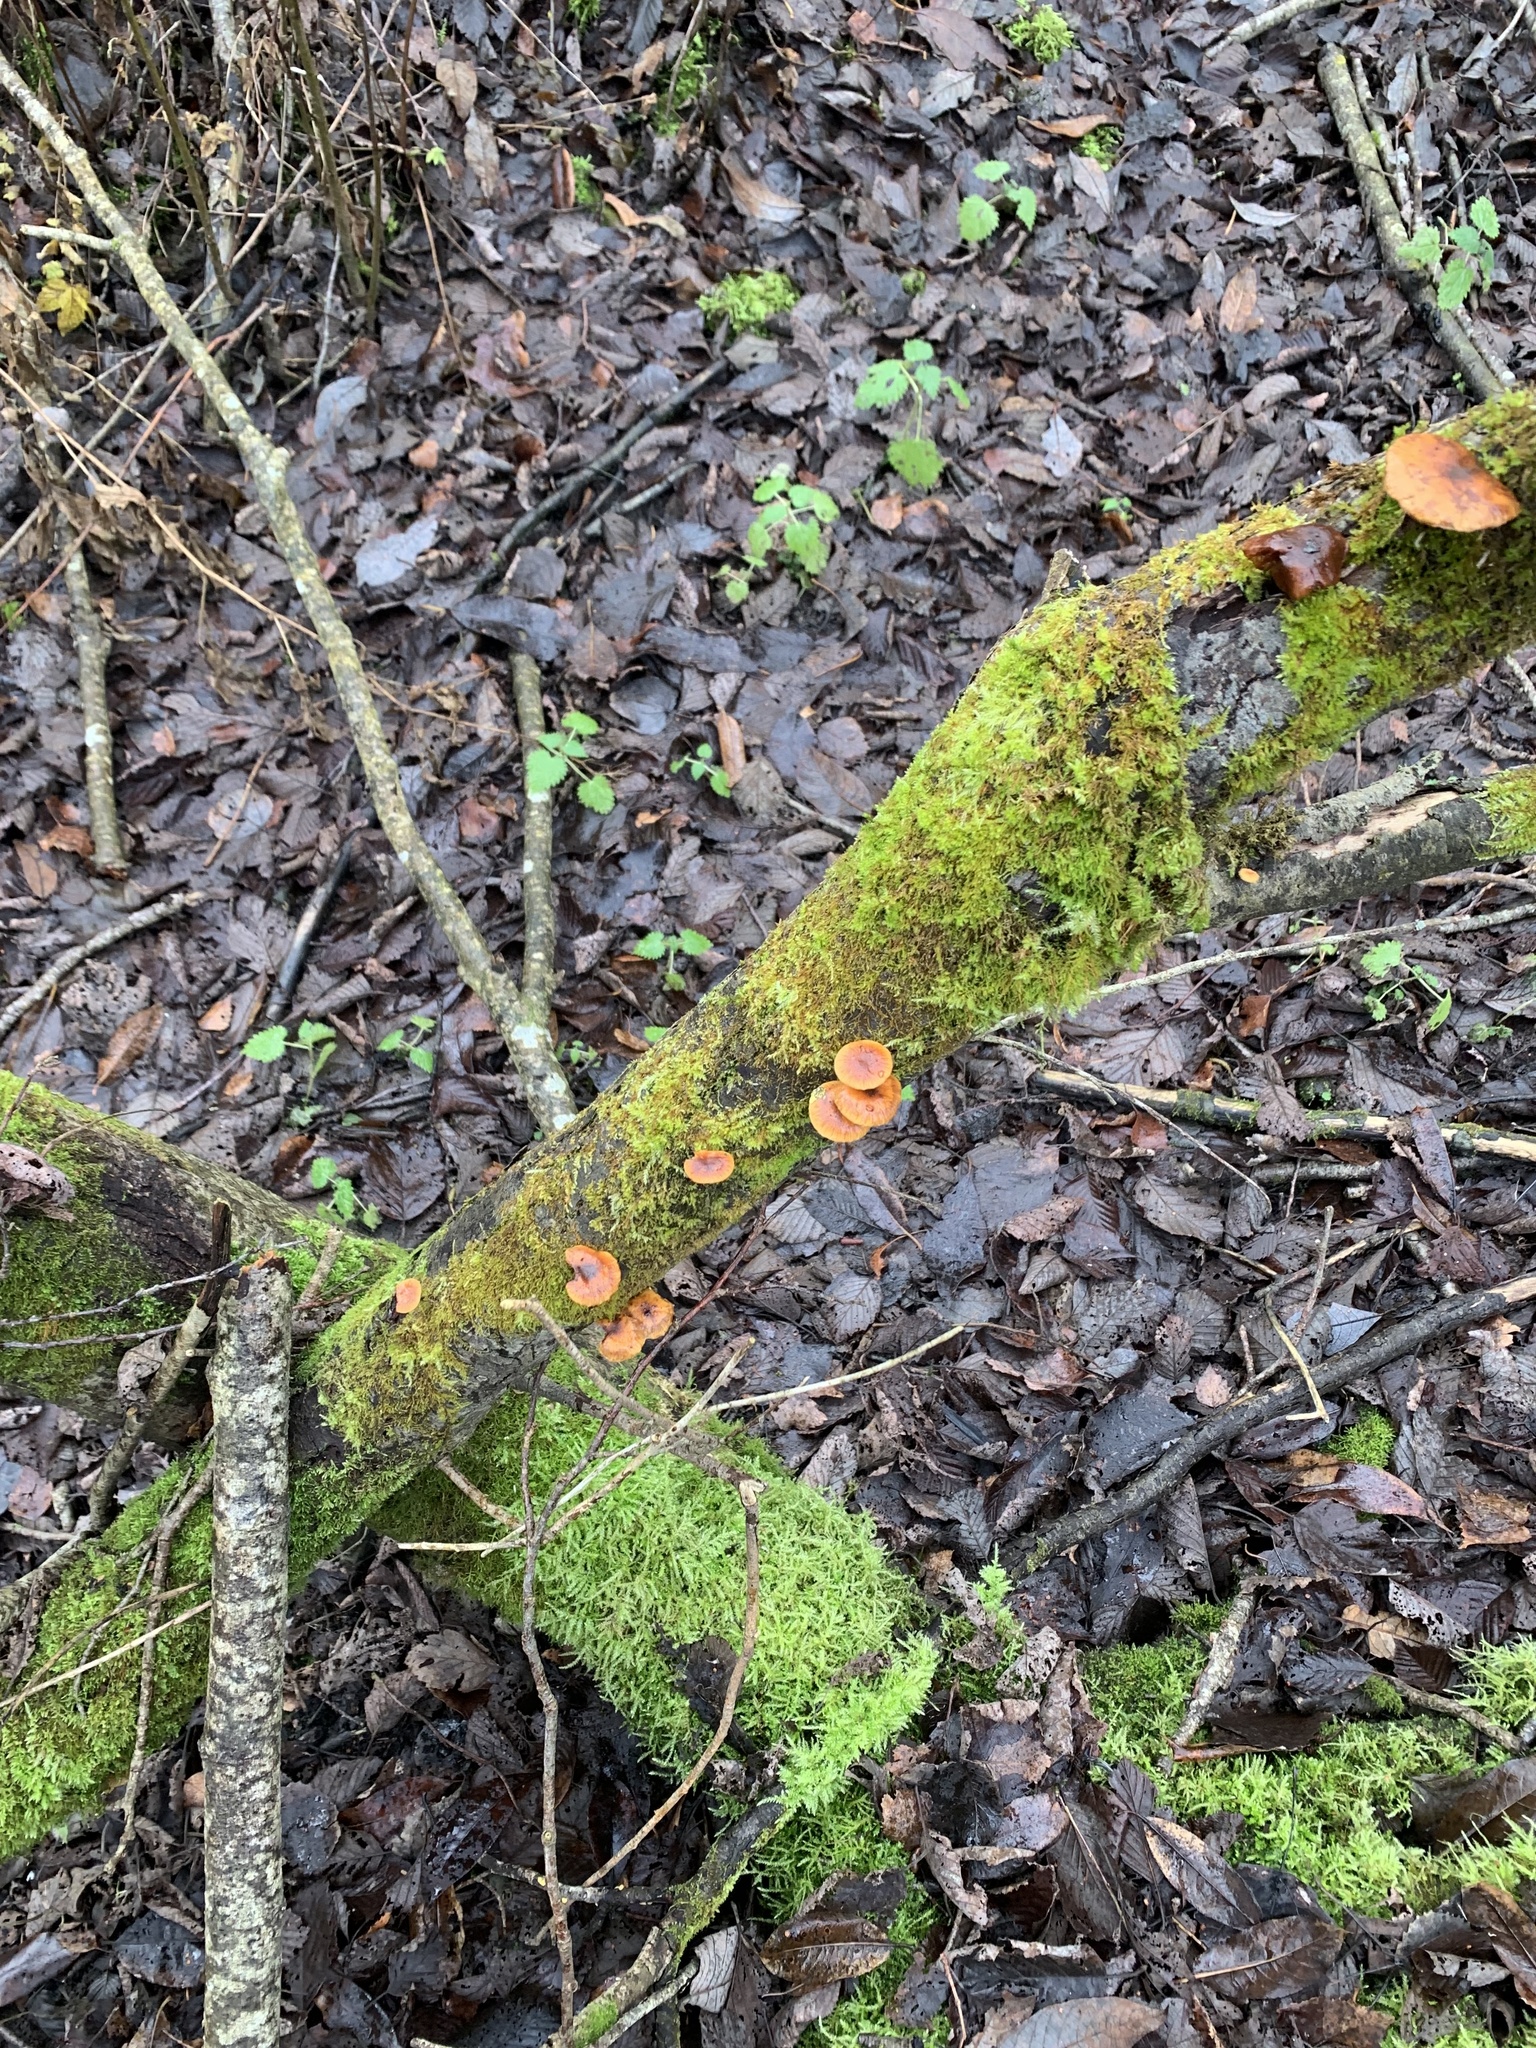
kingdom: Fungi
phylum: Basidiomycota
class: Agaricomycetes
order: Agaricales
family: Physalacriaceae
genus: Flammulina
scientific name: Flammulina
